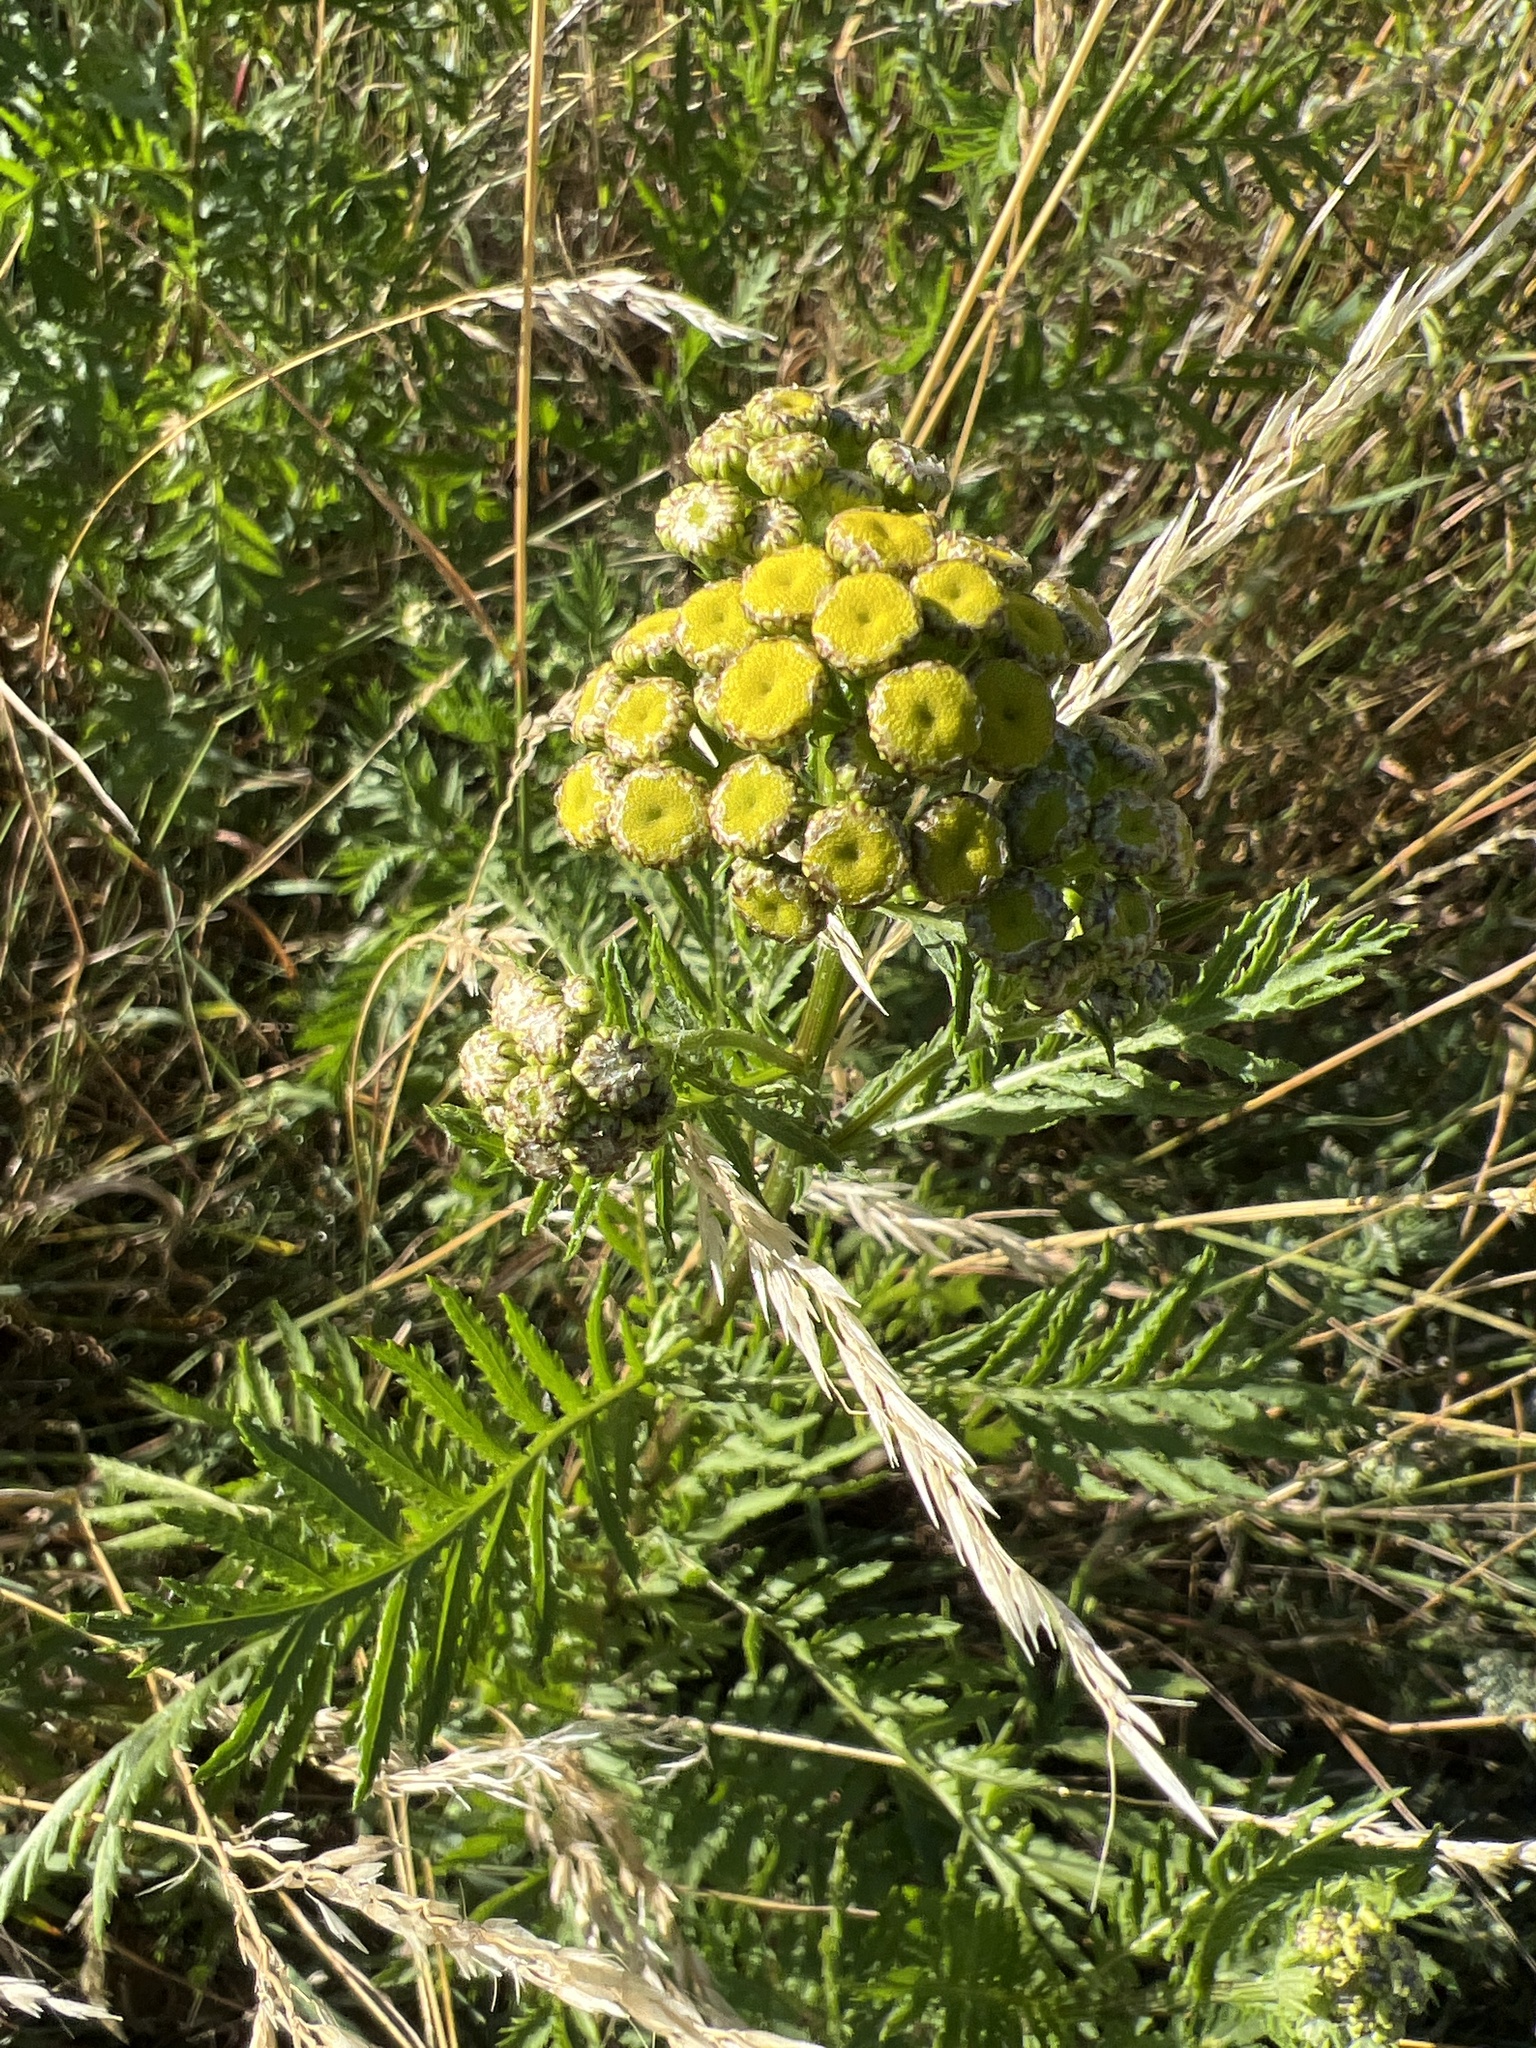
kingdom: Plantae
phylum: Tracheophyta
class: Magnoliopsida
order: Asterales
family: Asteraceae
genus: Tanacetum
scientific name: Tanacetum vulgare
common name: Common tansy
